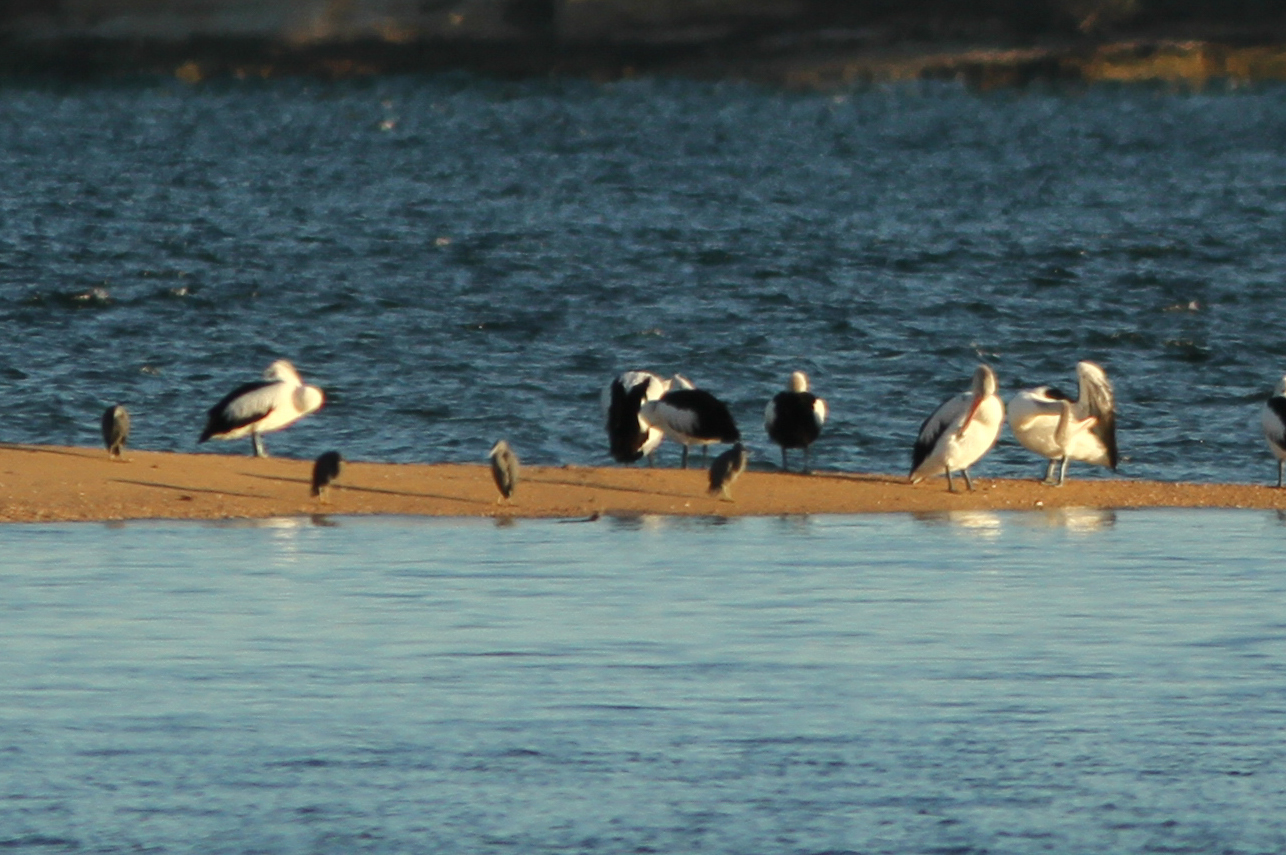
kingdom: Animalia
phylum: Chordata
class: Aves
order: Pelecaniformes
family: Pelecanidae
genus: Pelecanus
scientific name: Pelecanus conspicillatus
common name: Australian pelican
